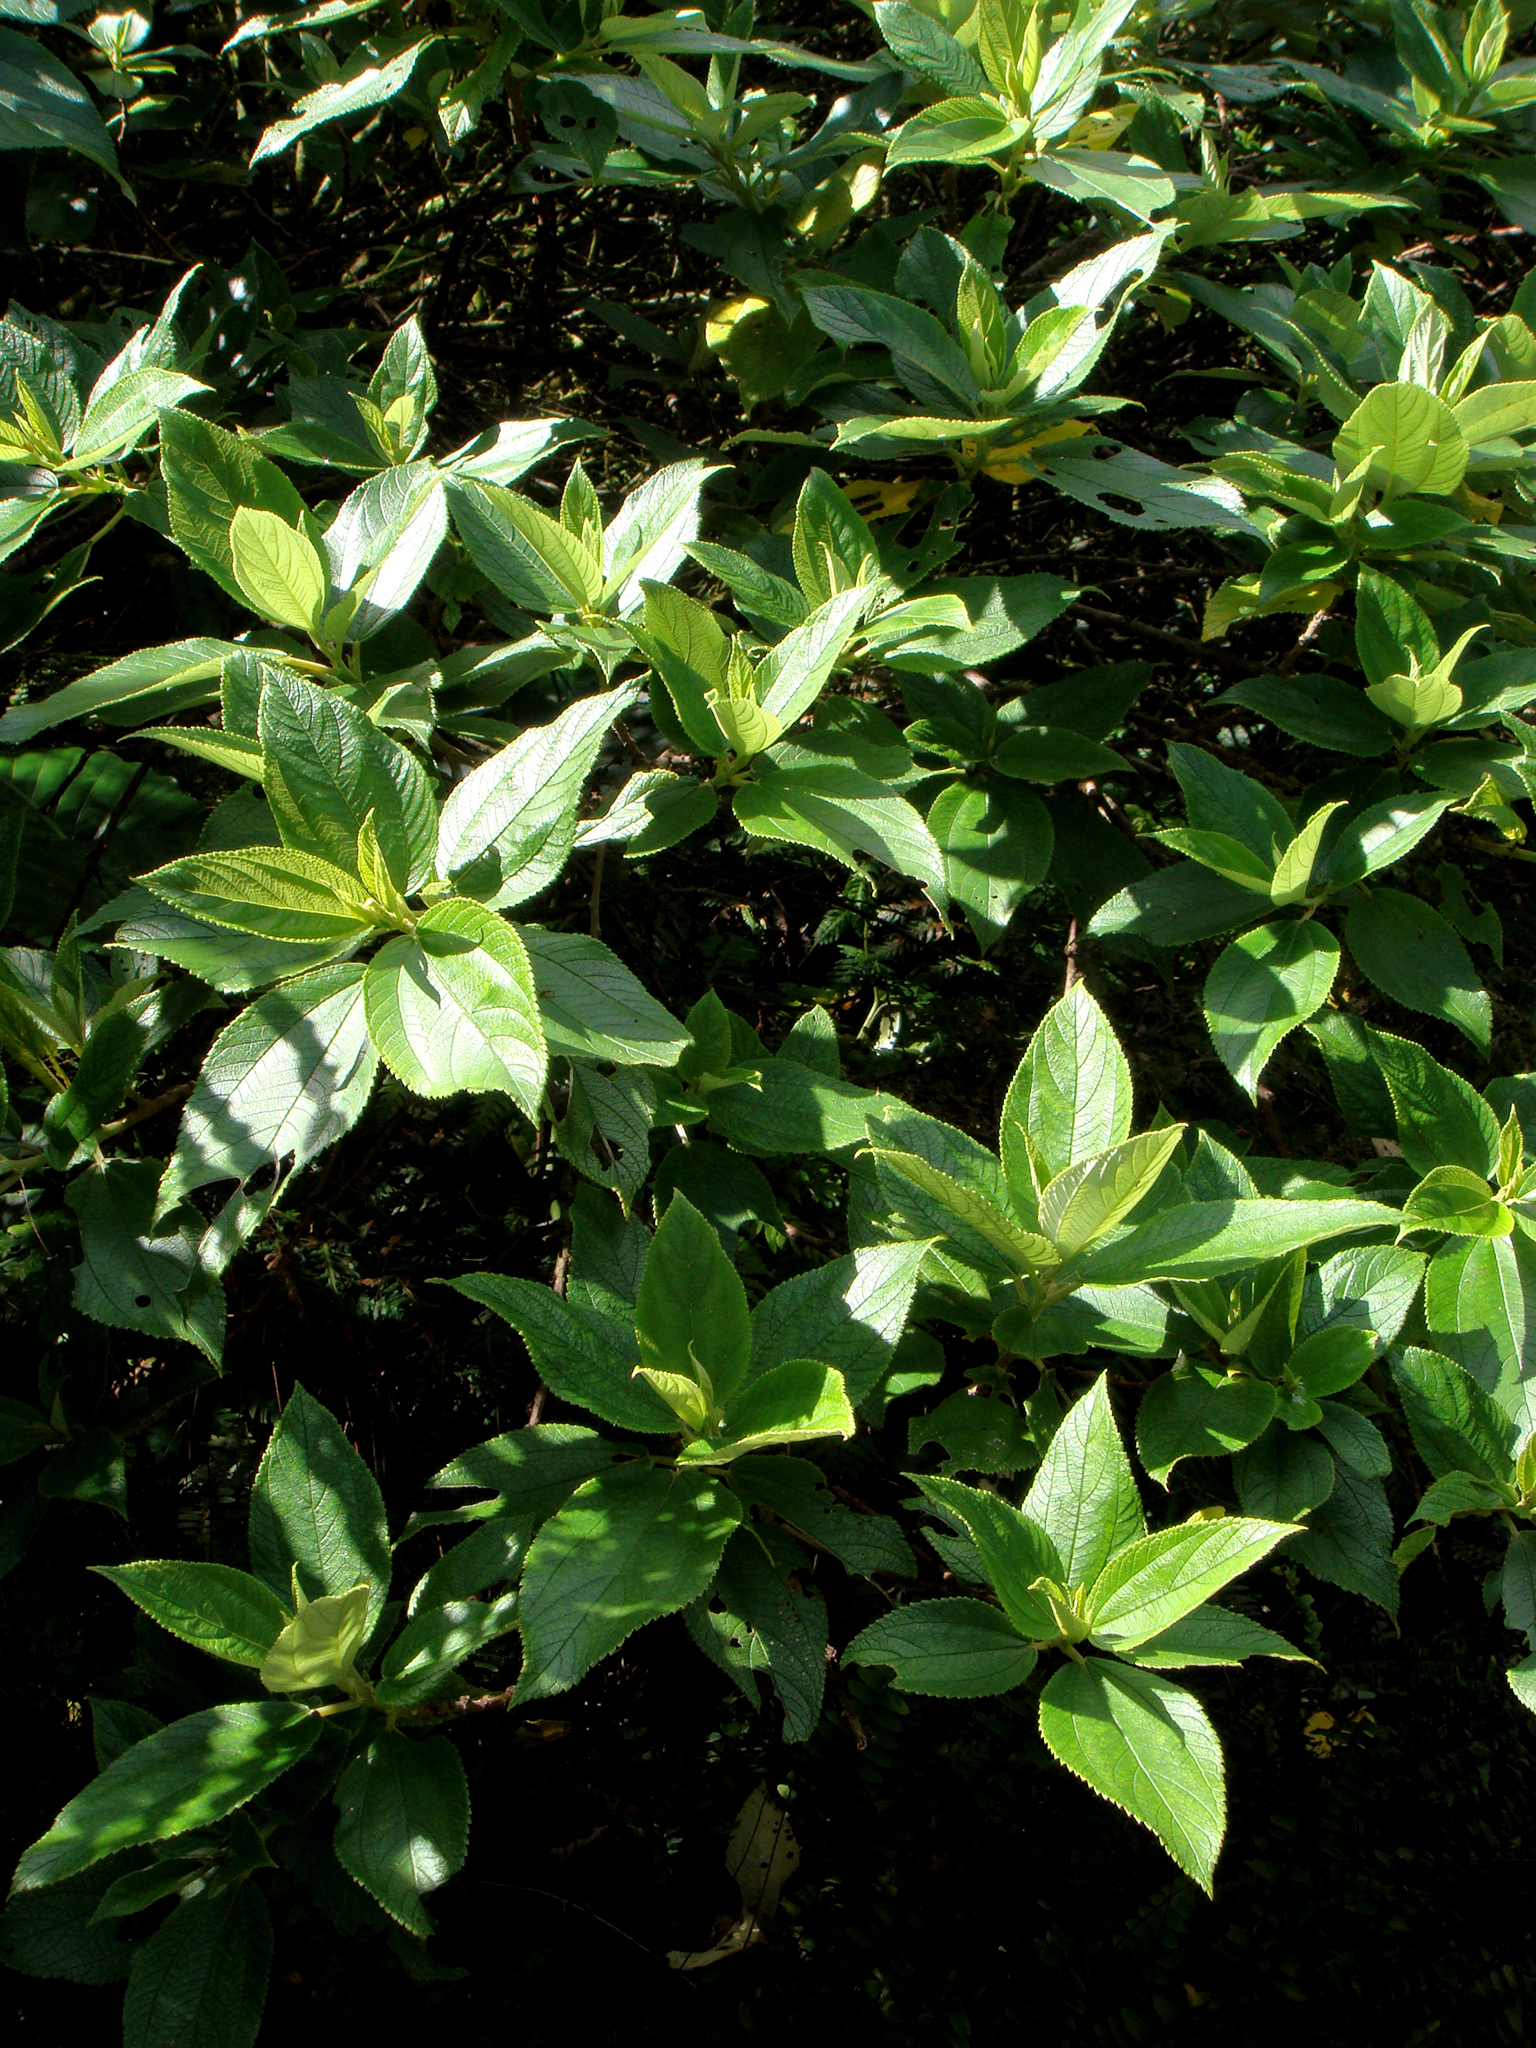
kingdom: Plantae
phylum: Tracheophyta
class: Magnoliopsida
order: Rosales
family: Urticaceae
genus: Pouzolzia
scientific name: Pouzolzia australis
